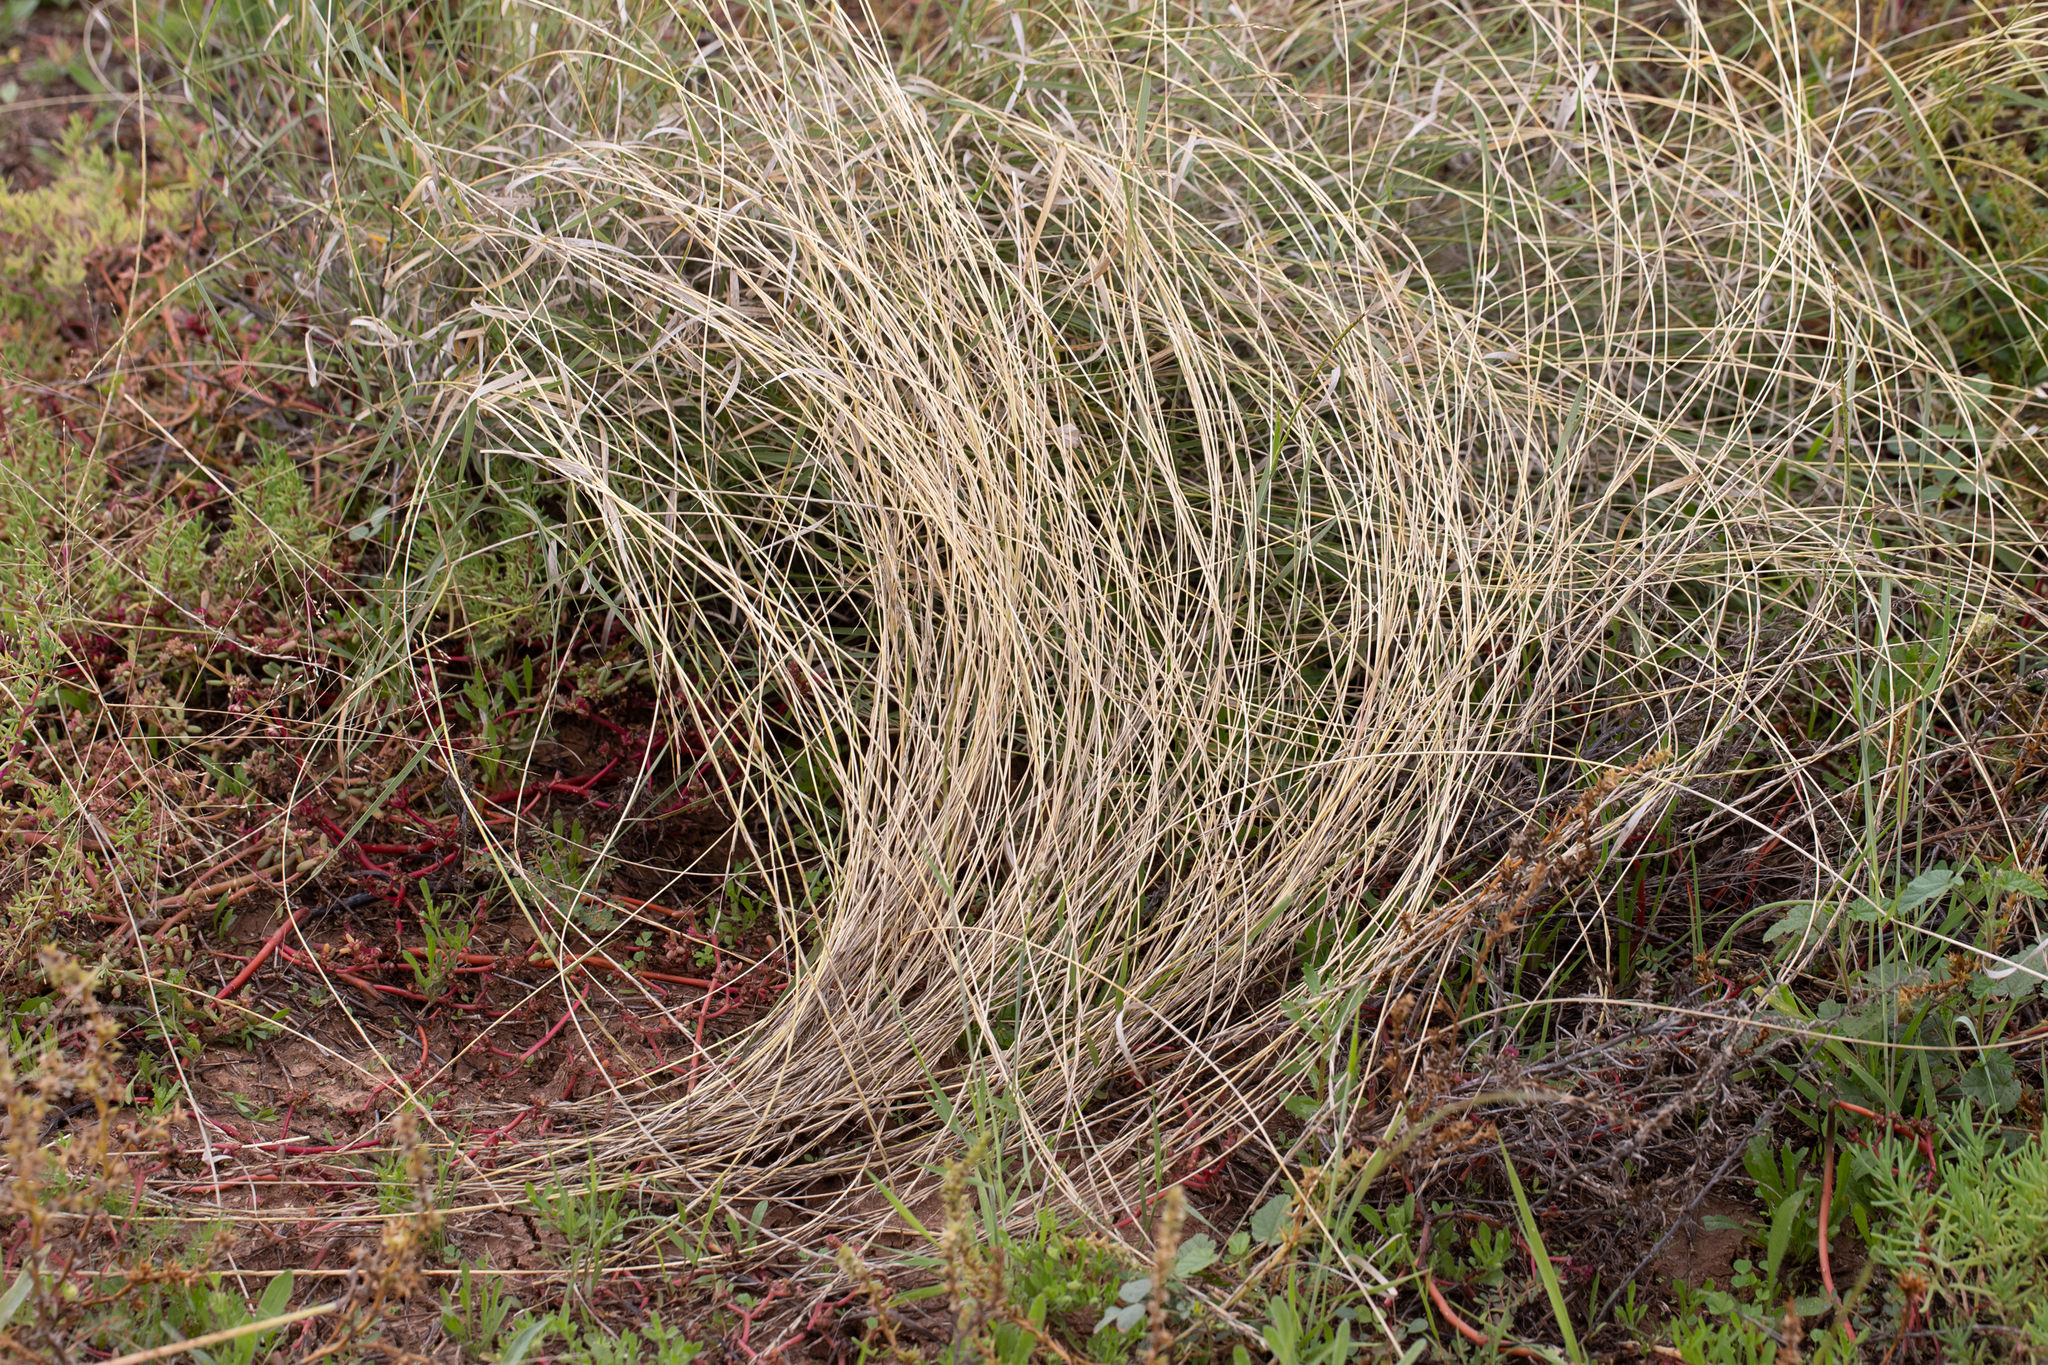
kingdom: Plantae
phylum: Tracheophyta
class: Liliopsida
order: Poales
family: Poaceae
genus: Astrebla
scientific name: Astrebla elymoides
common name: Hoop mitchell grass
